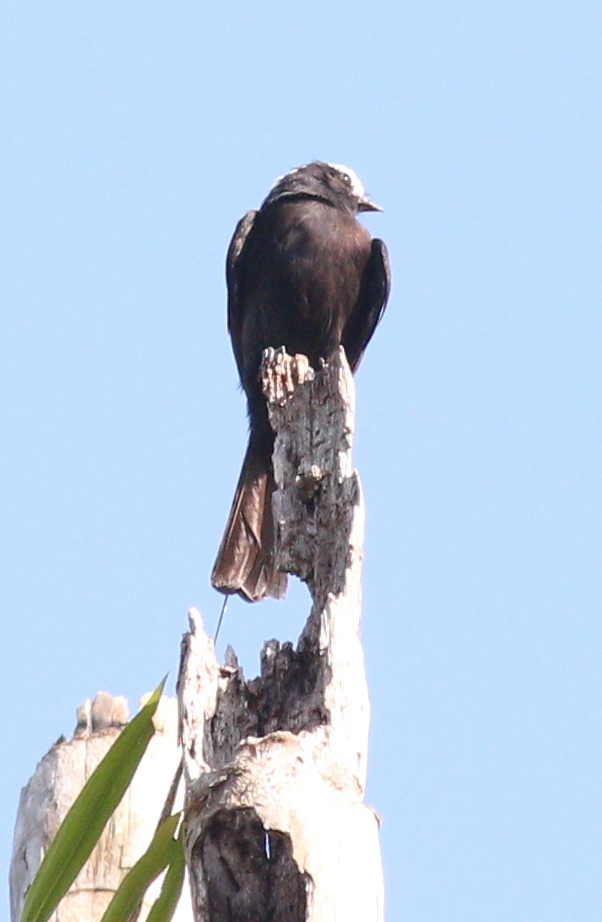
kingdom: Animalia
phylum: Chordata
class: Aves
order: Passeriformes
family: Tyrannidae
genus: Colonia
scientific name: Colonia colonus
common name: Long-tailed tyrant
